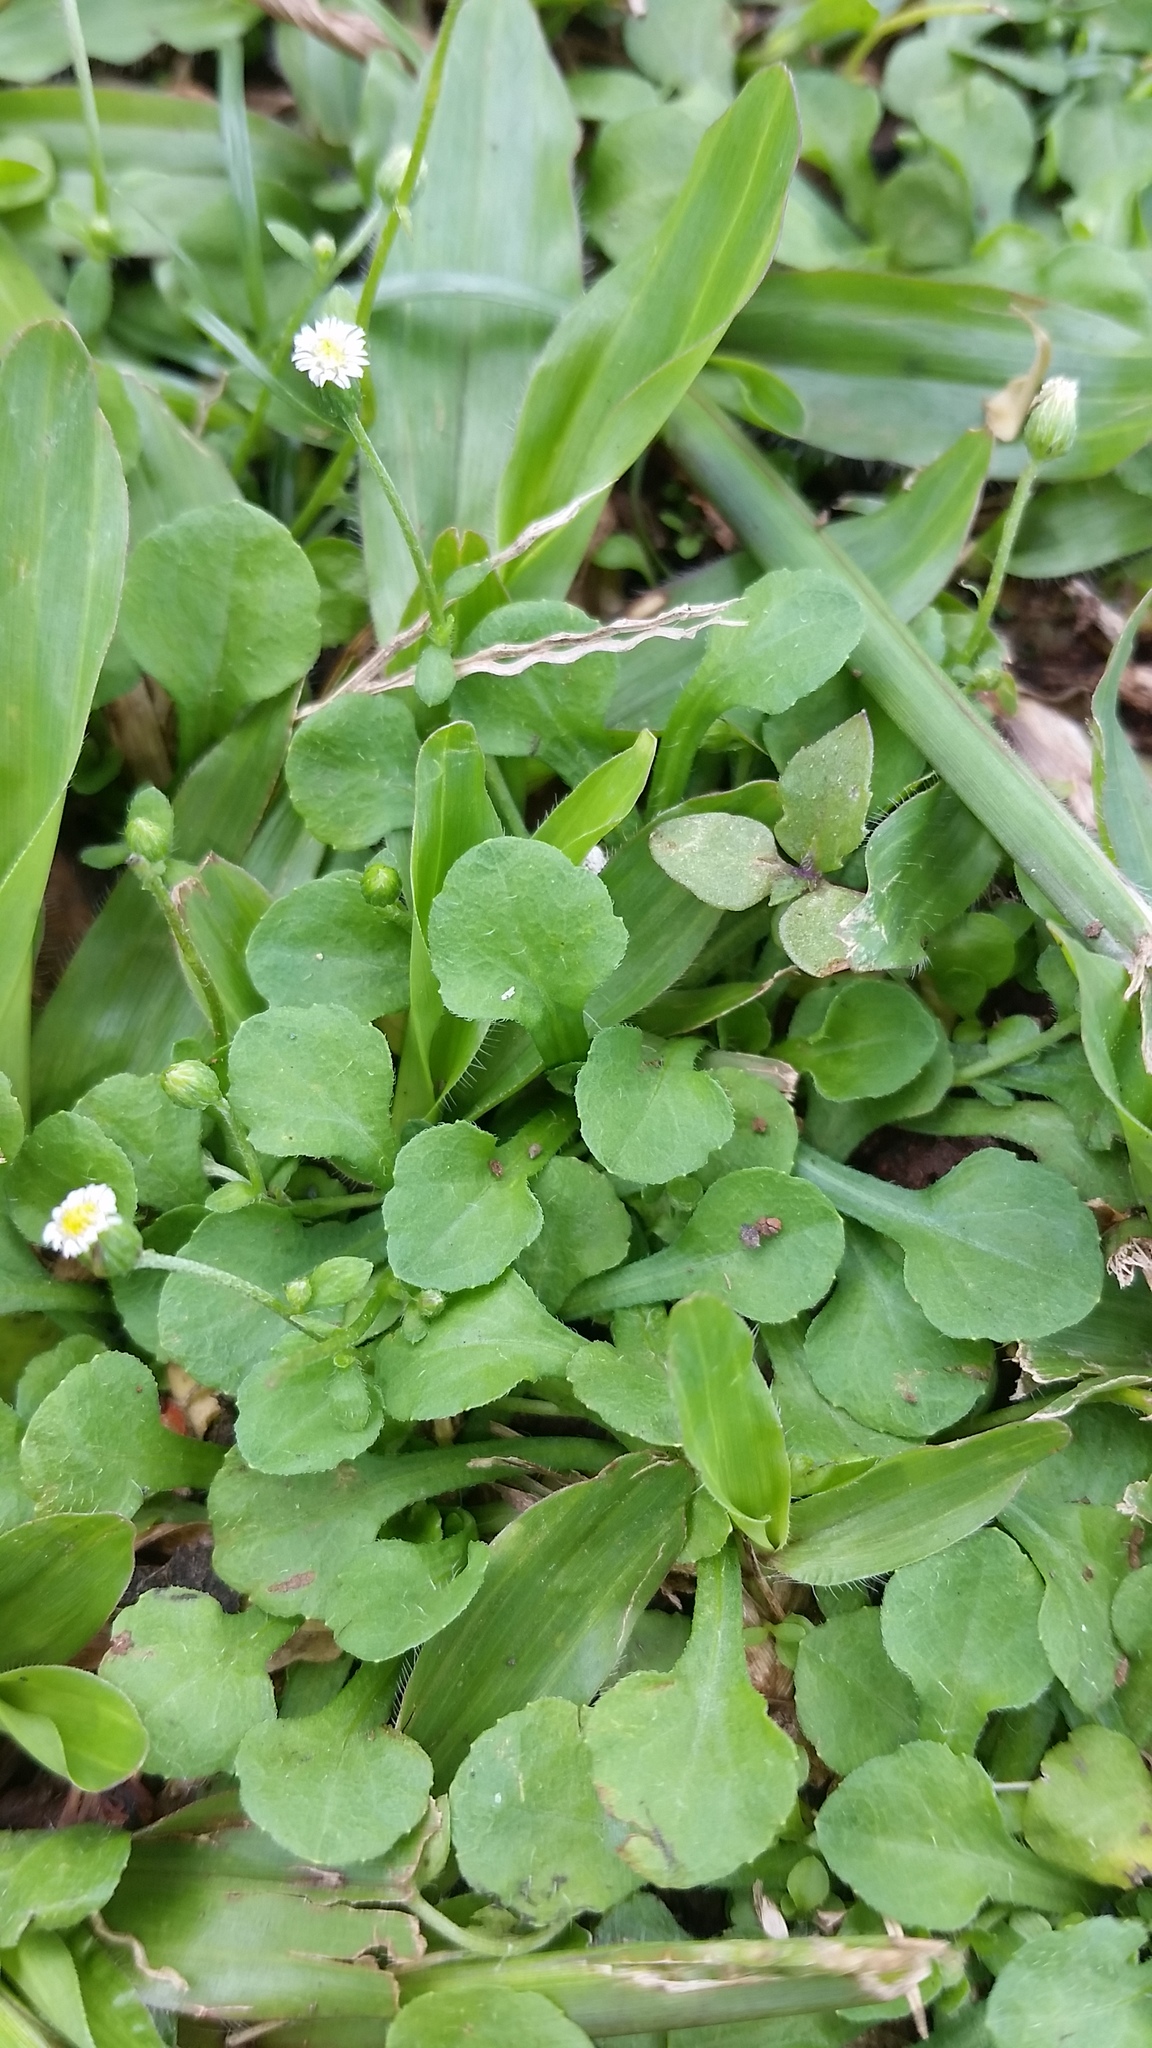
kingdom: Plantae
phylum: Tracheophyta
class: Magnoliopsida
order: Asterales
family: Asteraceae
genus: Erigeron
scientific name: Erigeron bellioides
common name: Bellorita
